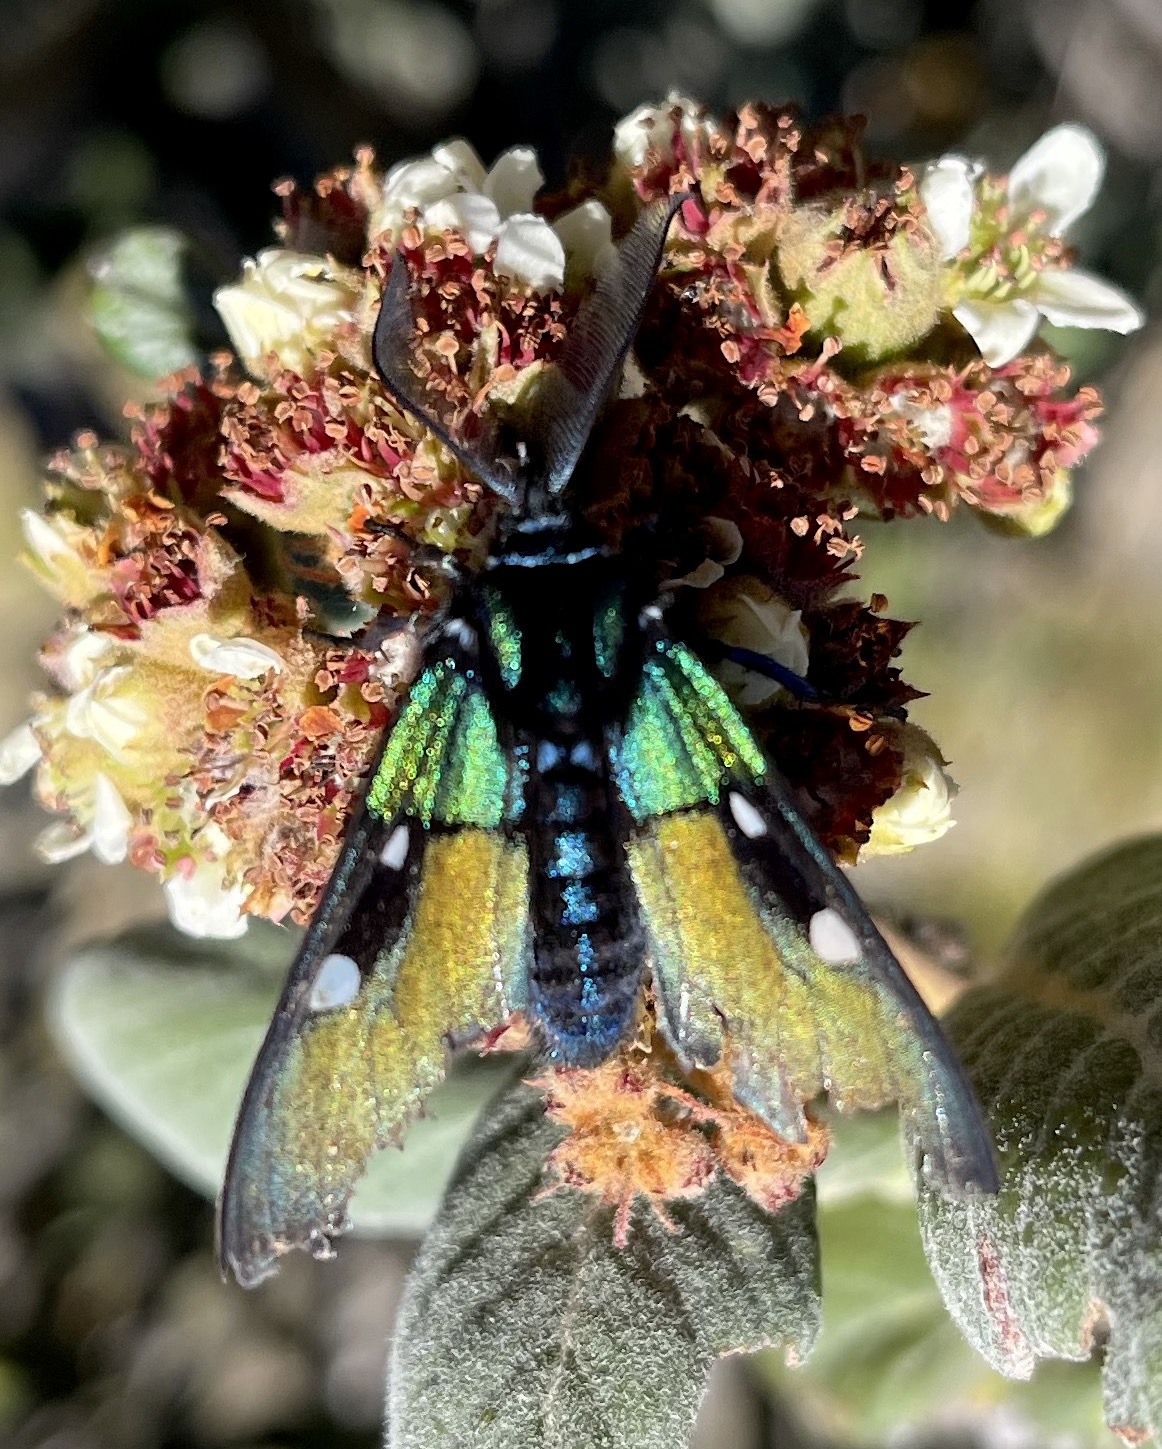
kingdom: Animalia
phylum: Arthropoda
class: Insecta
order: Lepidoptera
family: Erebidae
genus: Chrysocale
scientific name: Chrysocale ignita
